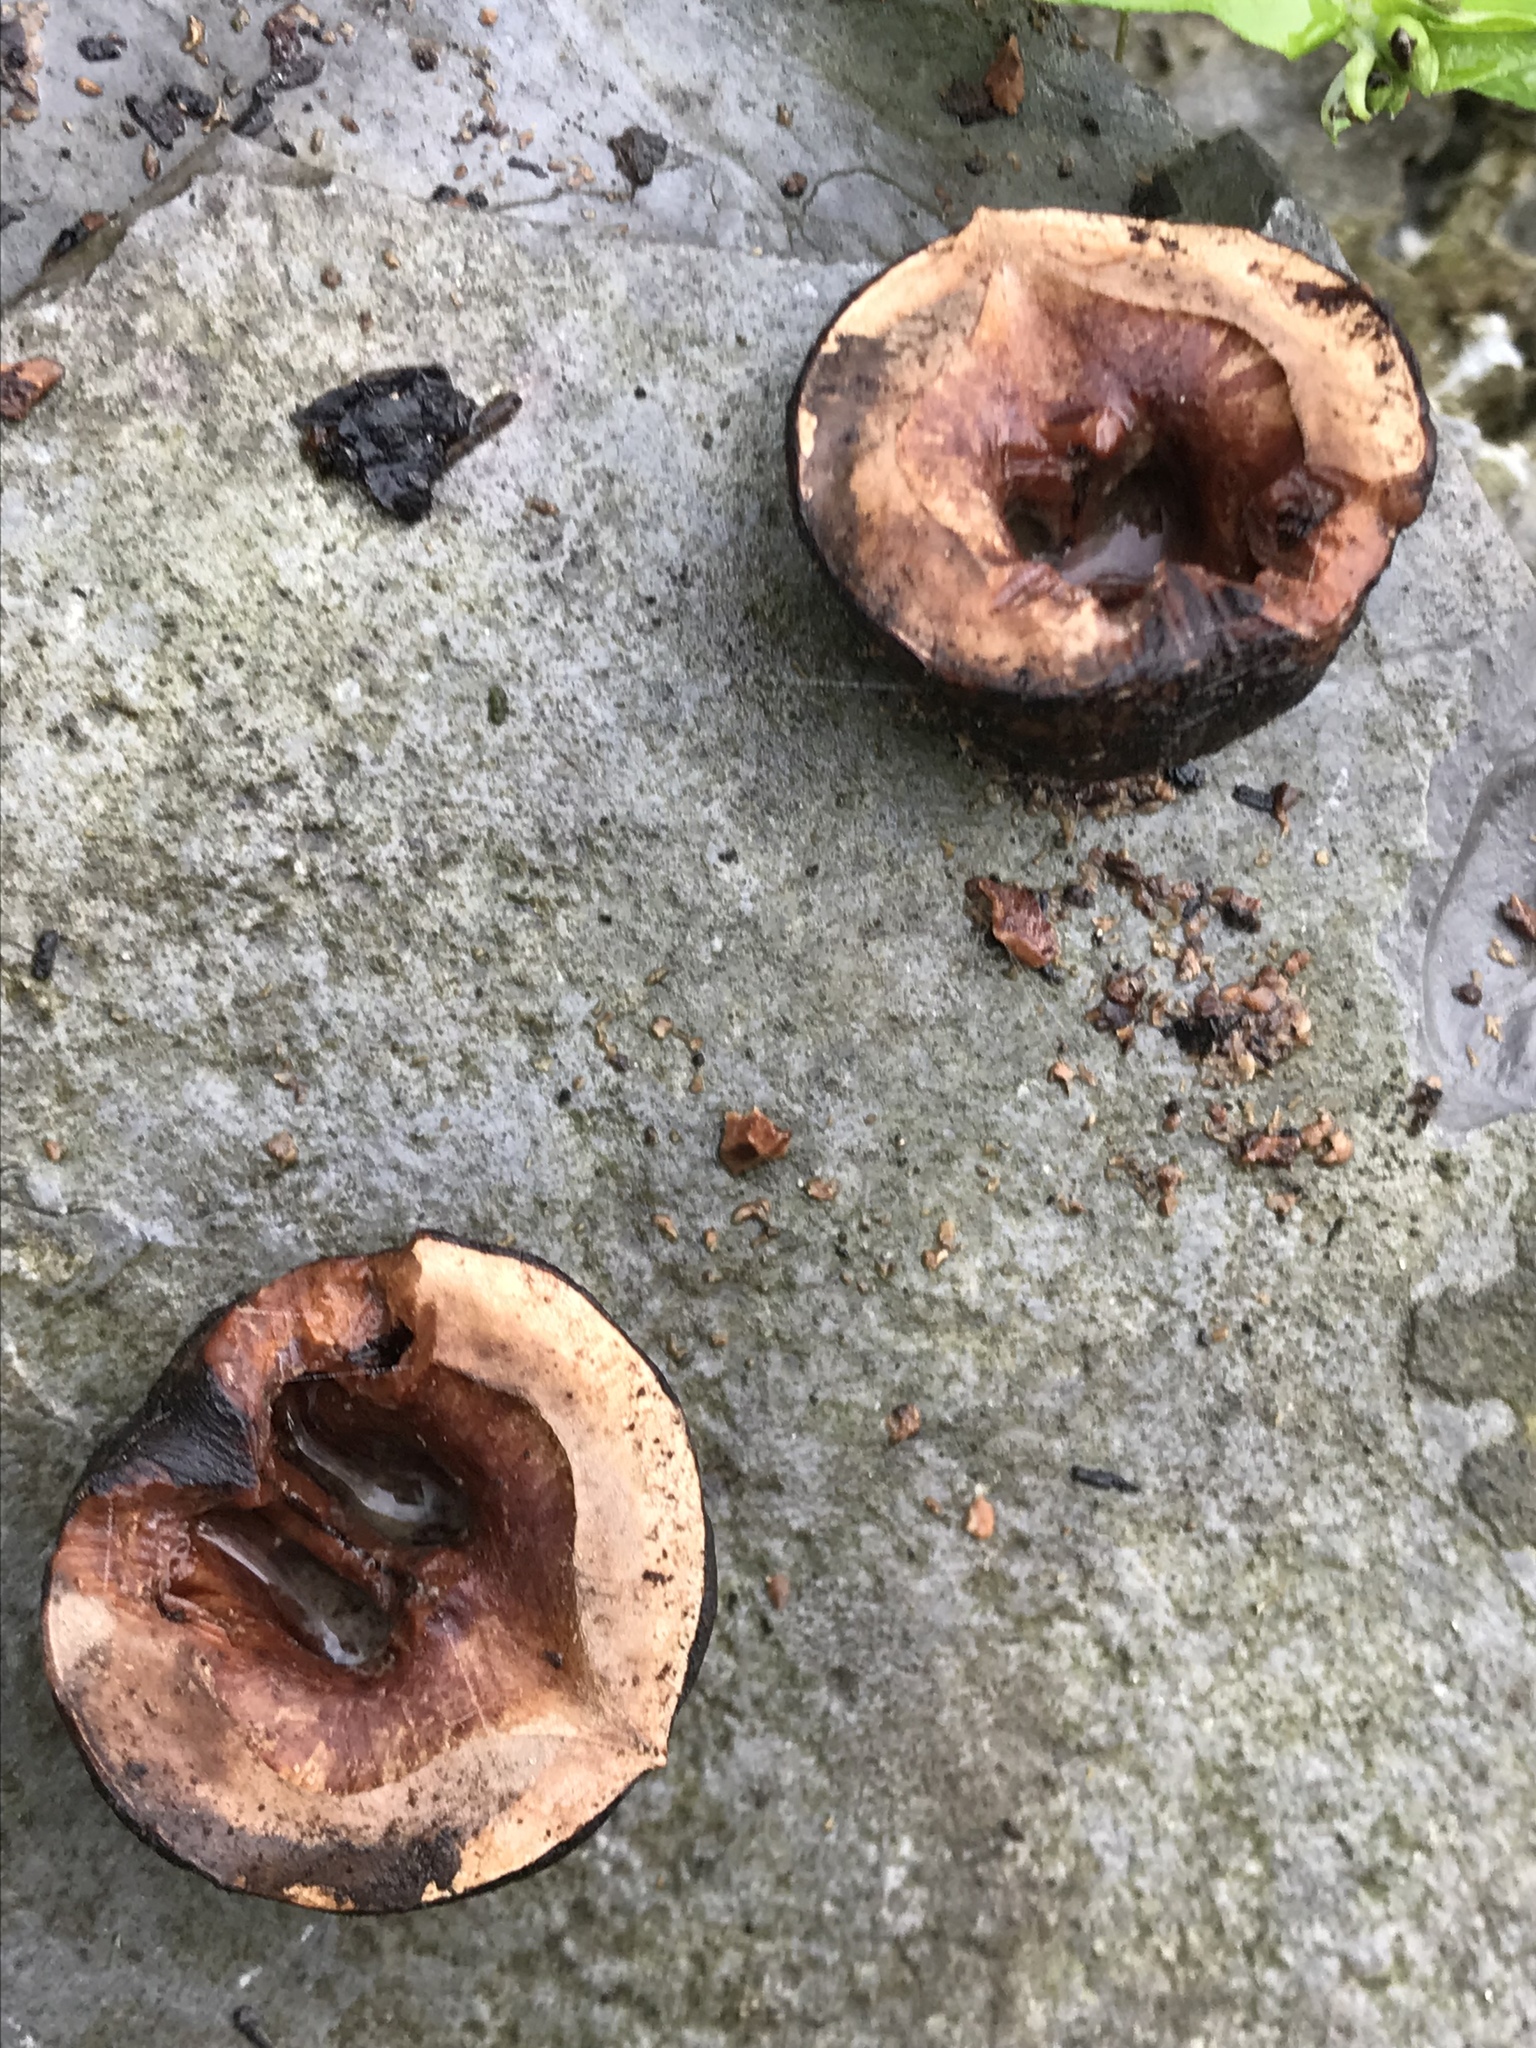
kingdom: Plantae
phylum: Tracheophyta
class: Magnoliopsida
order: Fagales
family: Juglandaceae
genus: Juglans
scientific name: Juglans mollis
